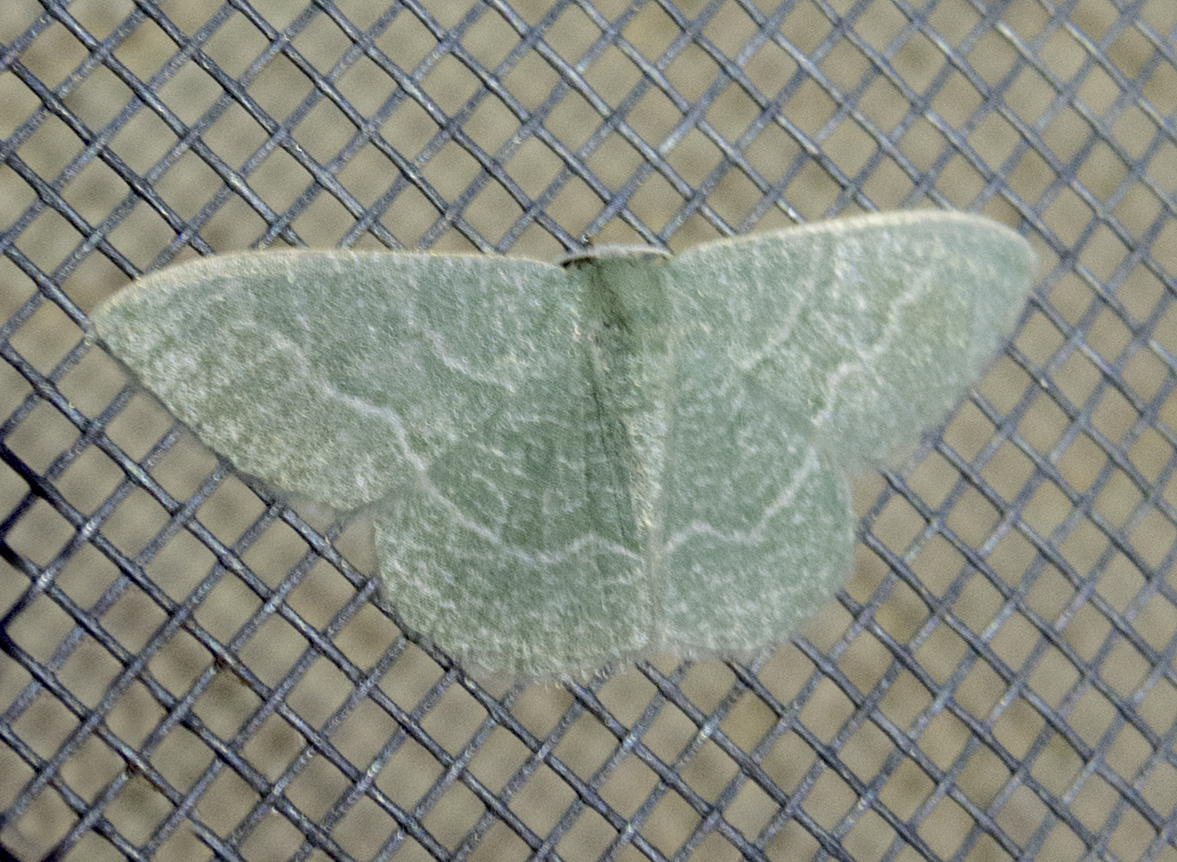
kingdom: Animalia
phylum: Arthropoda
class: Insecta
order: Lepidoptera
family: Geometridae
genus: Chlorissa
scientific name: Chlorissa etruscaria
